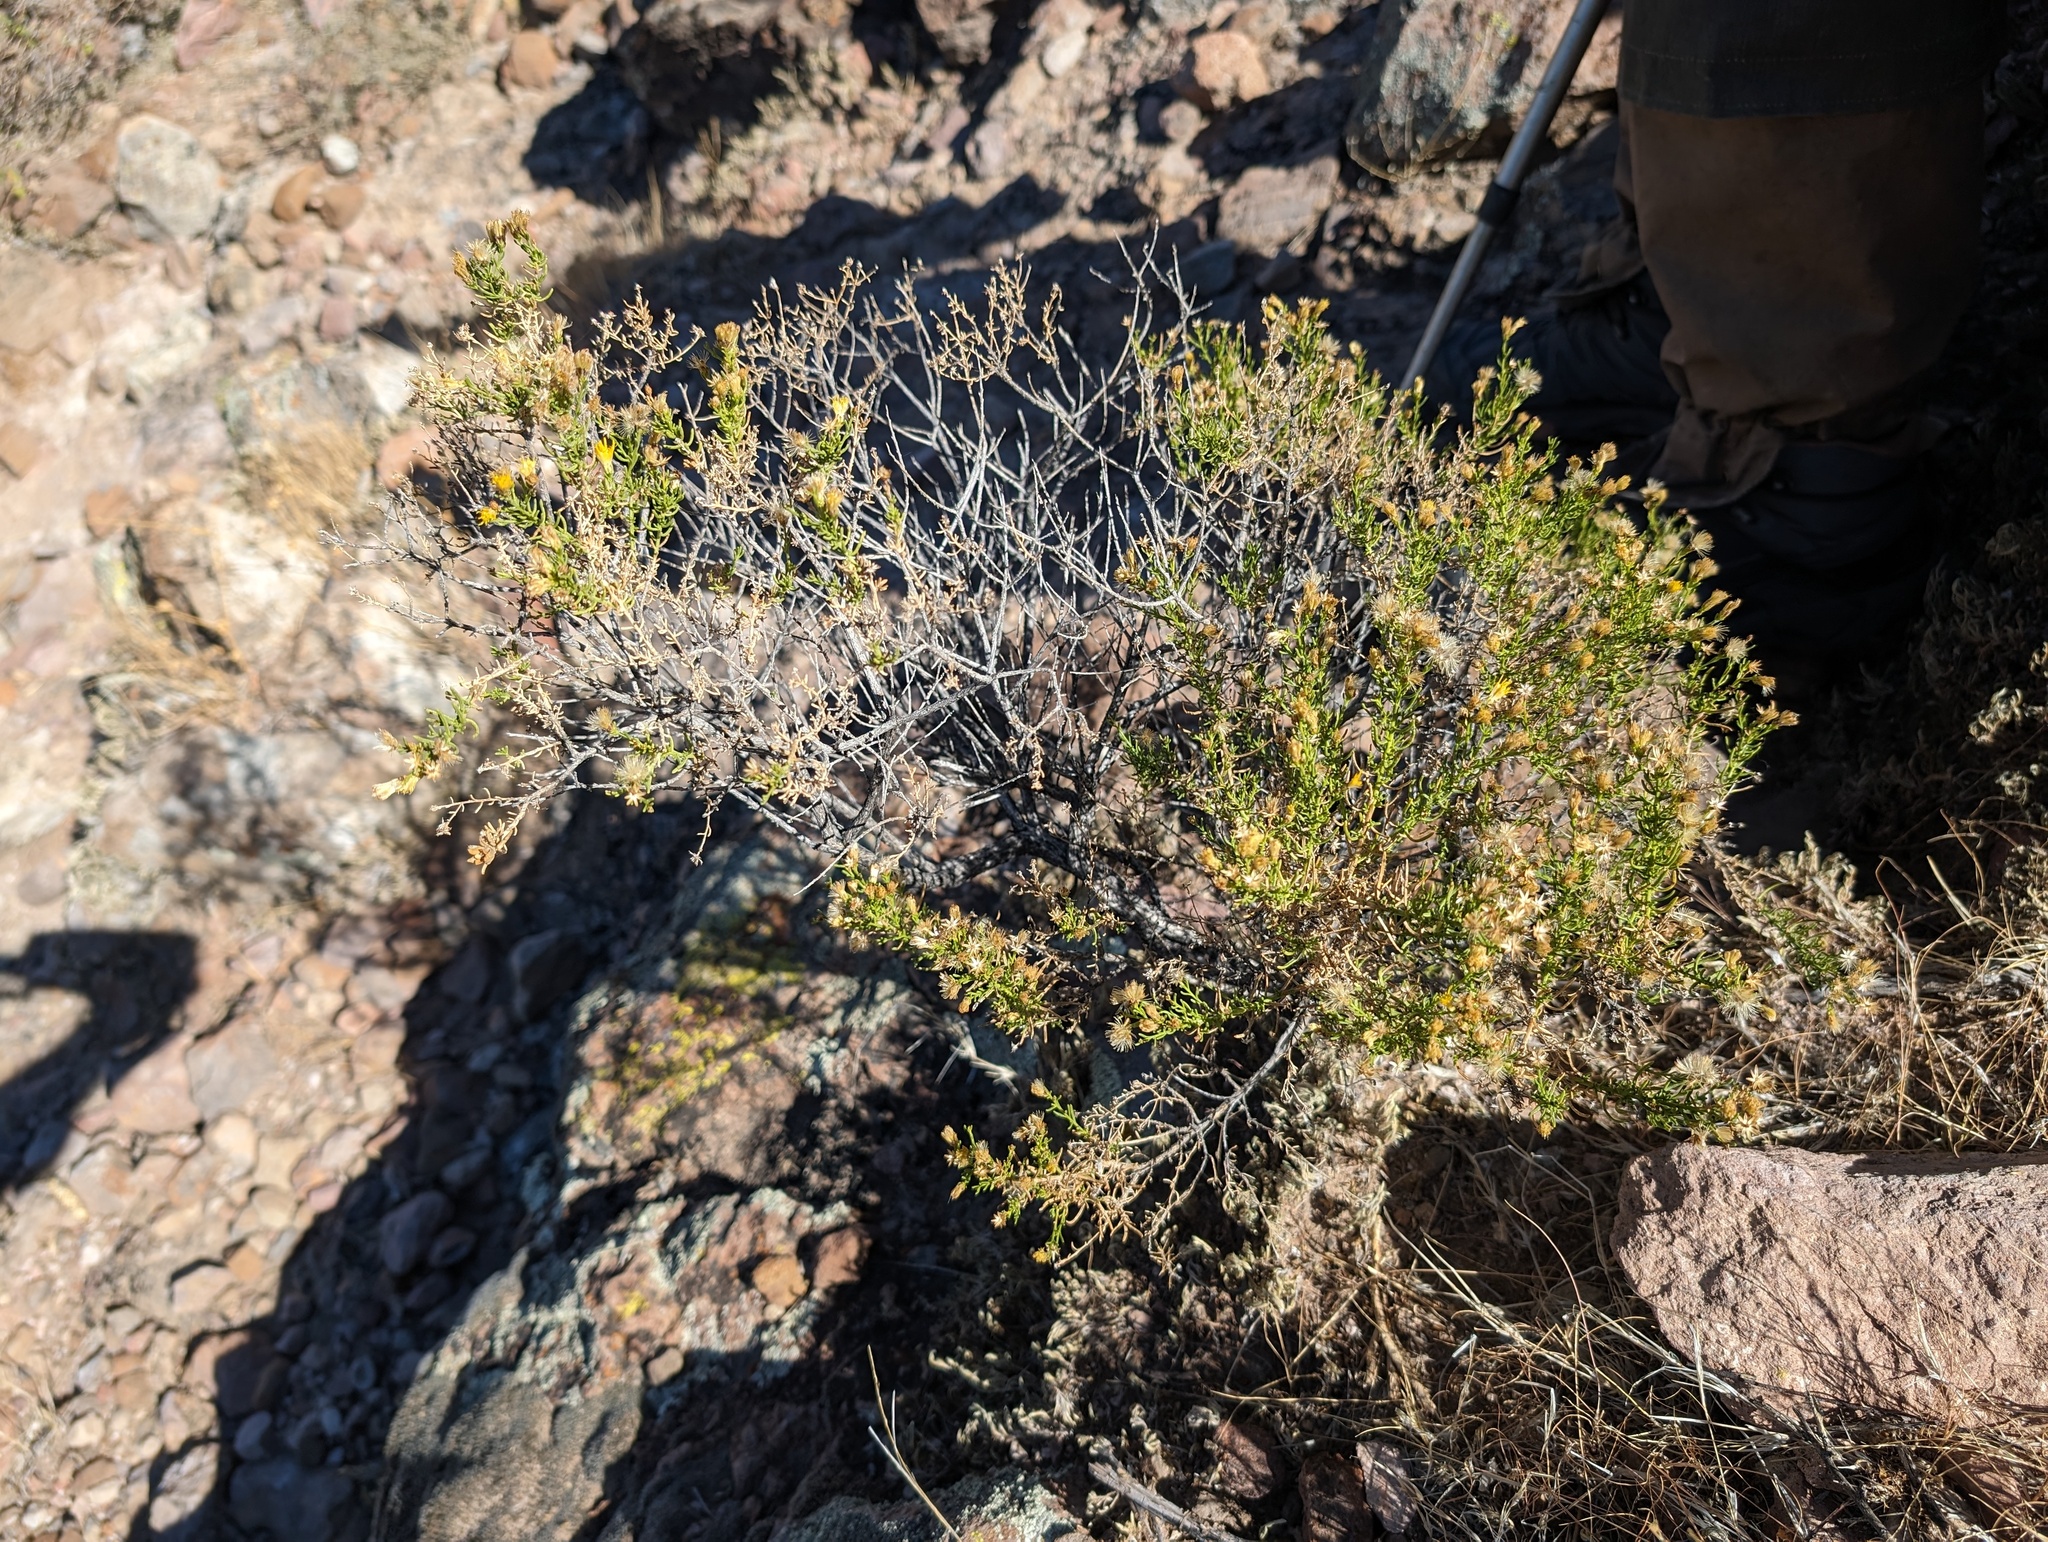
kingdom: Plantae
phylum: Tracheophyta
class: Magnoliopsida
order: Asterales
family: Asteraceae
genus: Ericameria
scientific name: Ericameria brachylepis
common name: Boundary goldenbush
